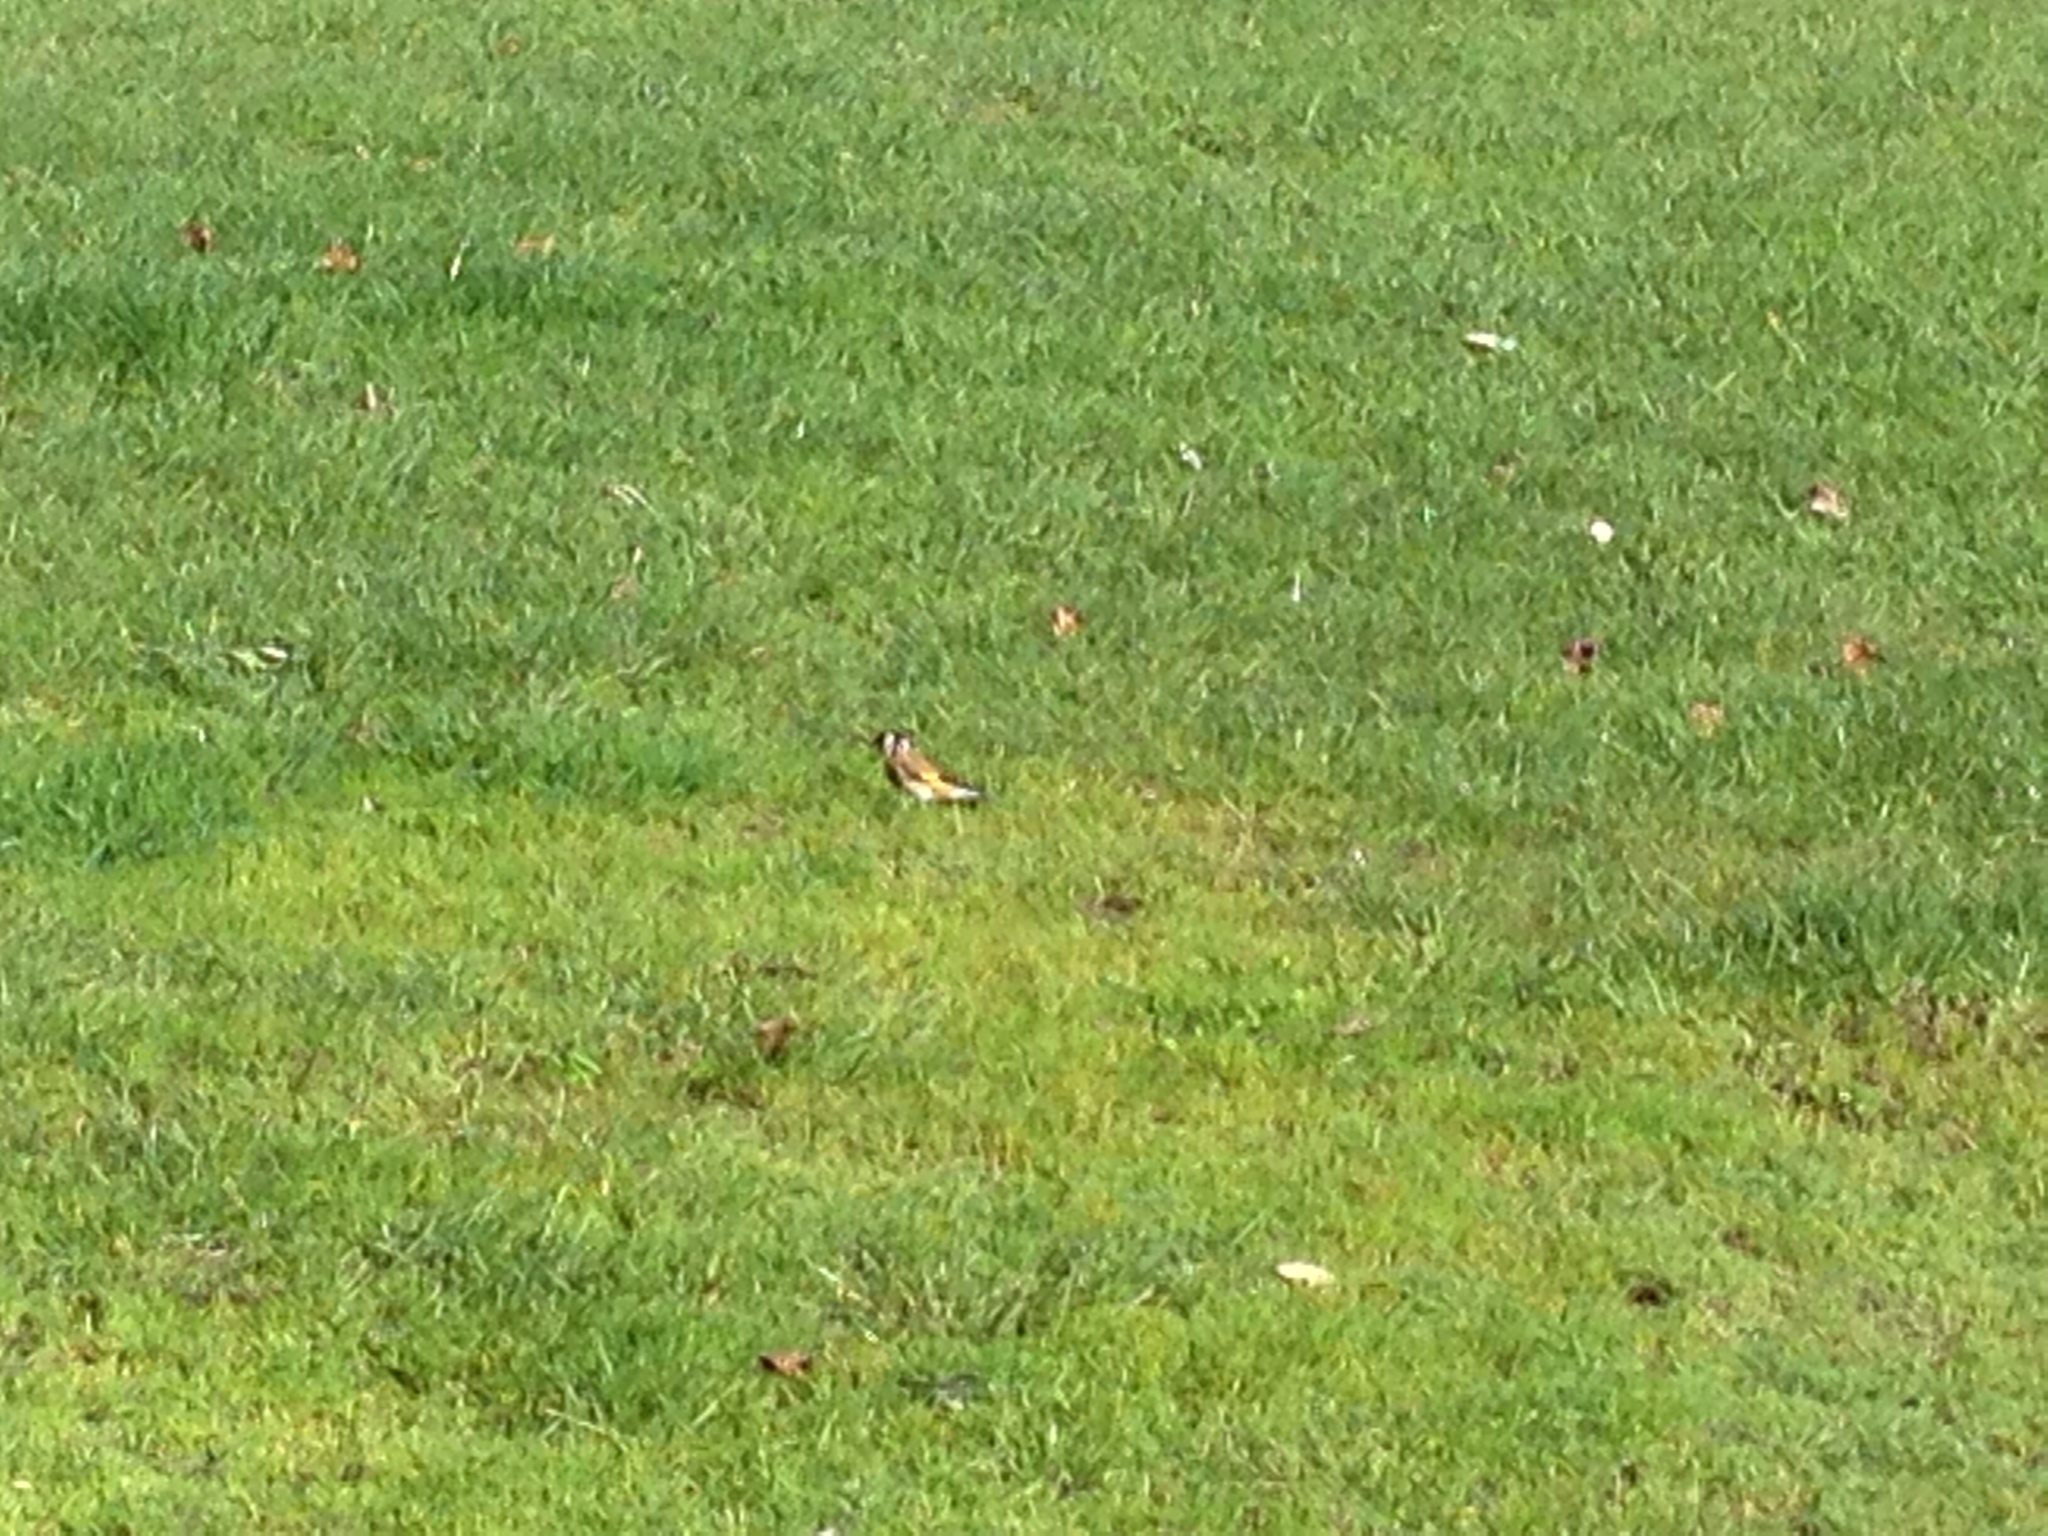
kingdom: Animalia
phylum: Chordata
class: Aves
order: Passeriformes
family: Fringillidae
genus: Carduelis
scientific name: Carduelis carduelis
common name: European goldfinch
